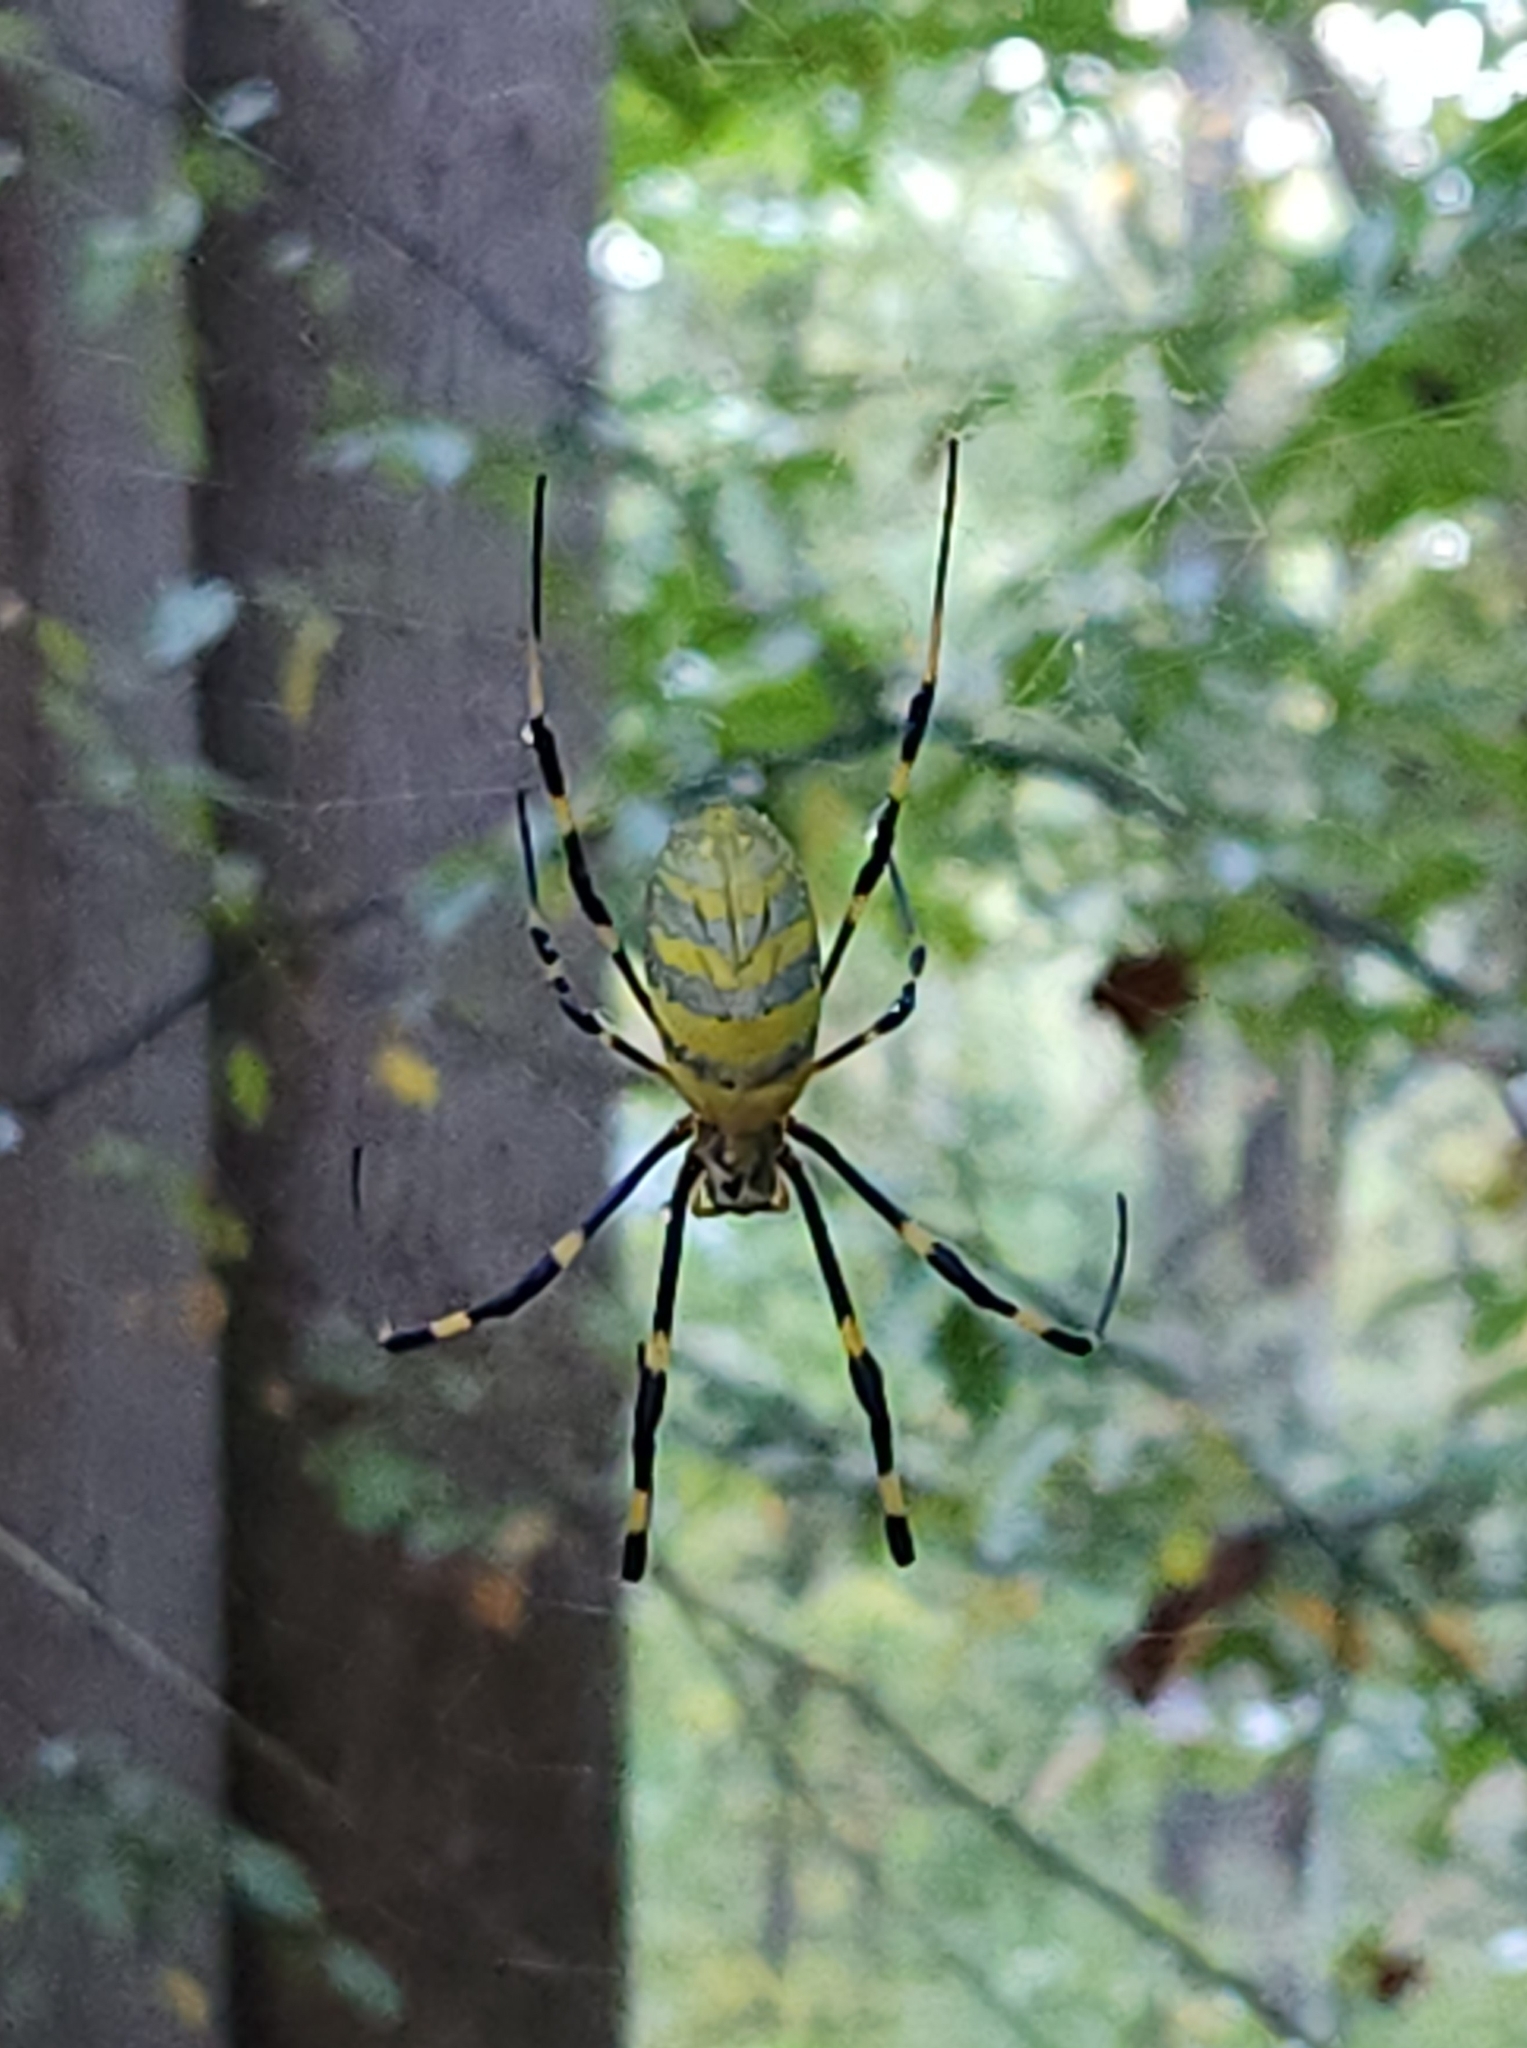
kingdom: Animalia
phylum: Arthropoda
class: Arachnida
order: Araneae
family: Araneidae
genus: Trichonephila
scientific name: Trichonephila clavata
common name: Jorō spider
